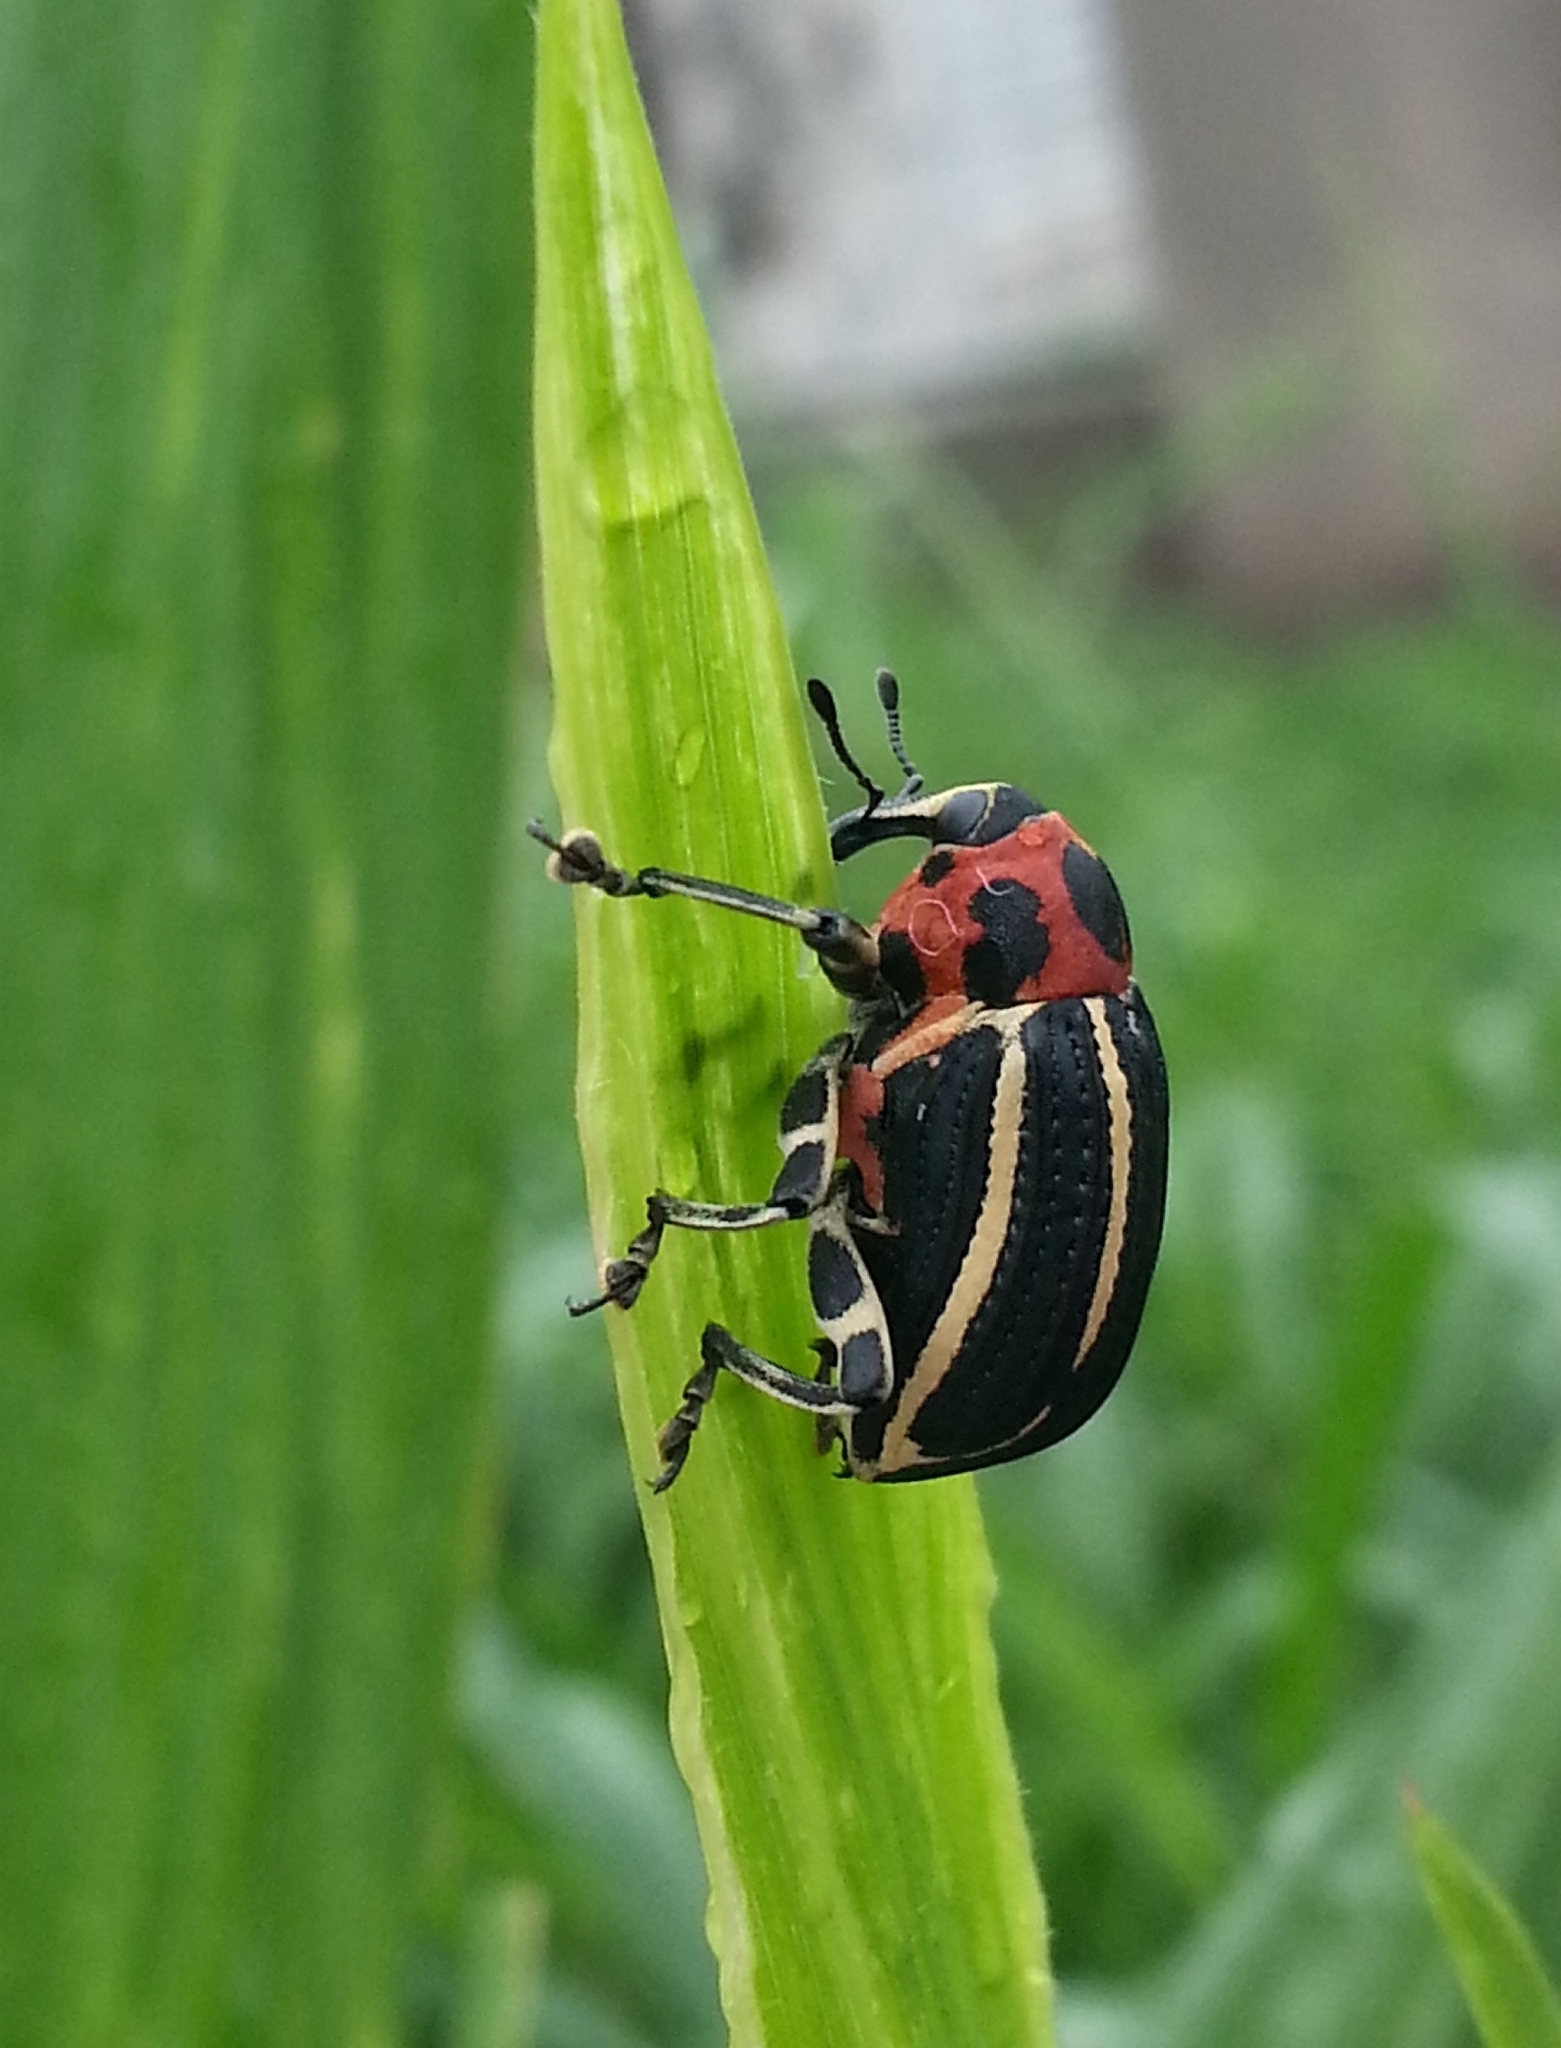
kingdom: Animalia
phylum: Arthropoda
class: Insecta
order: Coleoptera
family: Curculionidae
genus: Neodiplogrammus
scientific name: Neodiplogrammus
